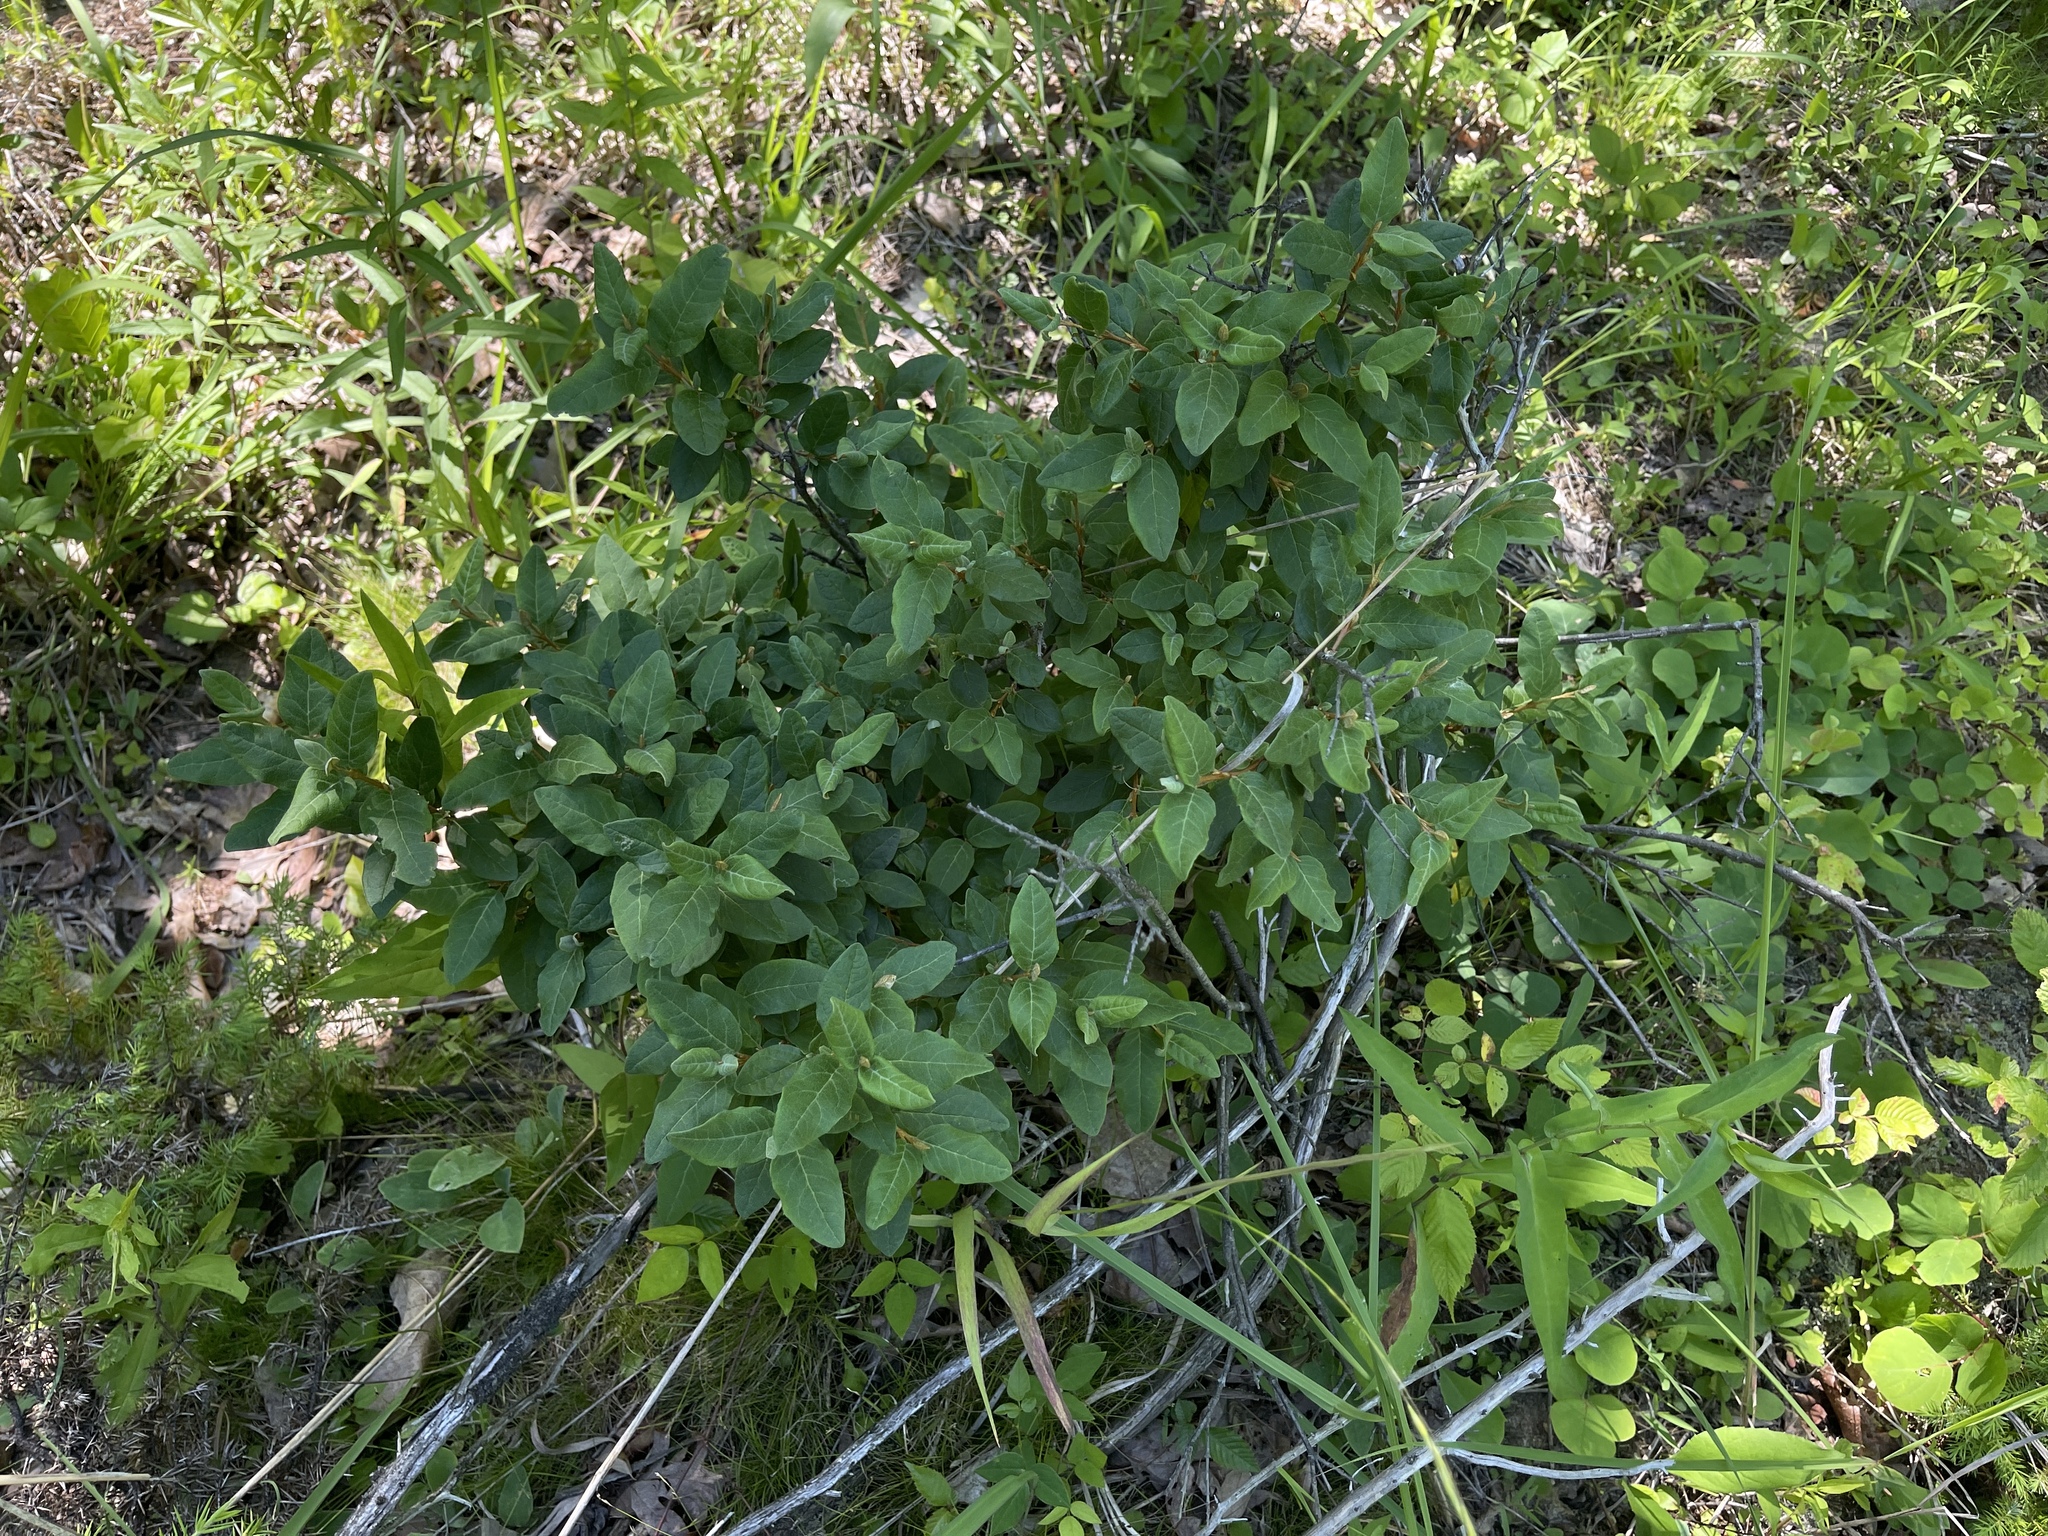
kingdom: Plantae
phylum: Tracheophyta
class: Magnoliopsida
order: Rosales
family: Elaeagnaceae
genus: Shepherdia
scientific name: Shepherdia canadensis
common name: Soapberry
